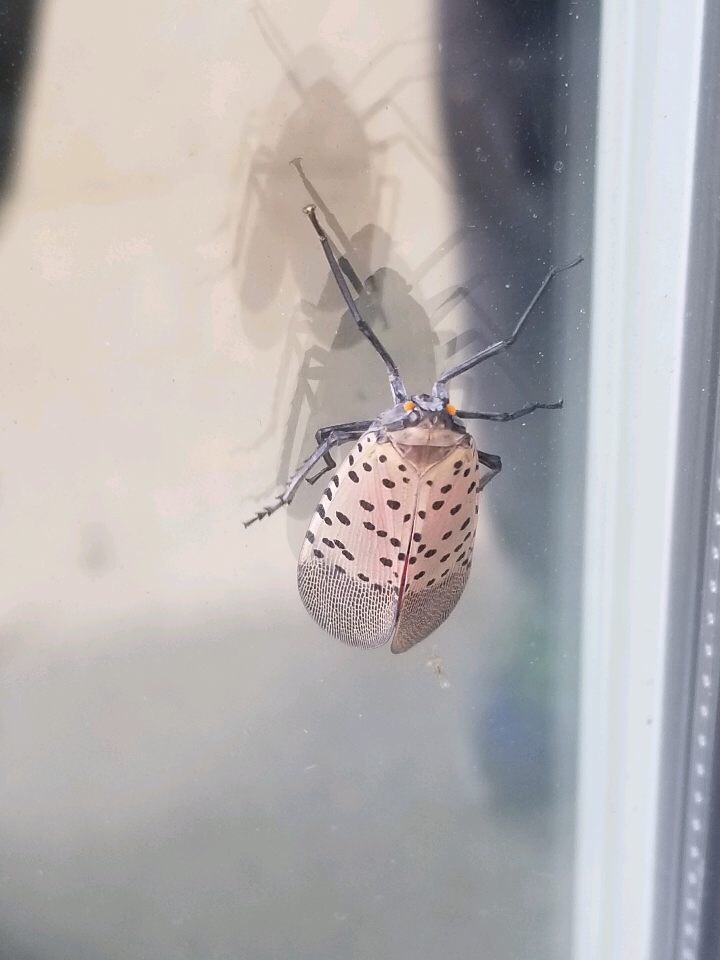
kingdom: Animalia
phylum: Arthropoda
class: Insecta
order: Hemiptera
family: Fulgoridae
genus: Lycorma
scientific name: Lycorma delicatula
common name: Spotted lanternfly
